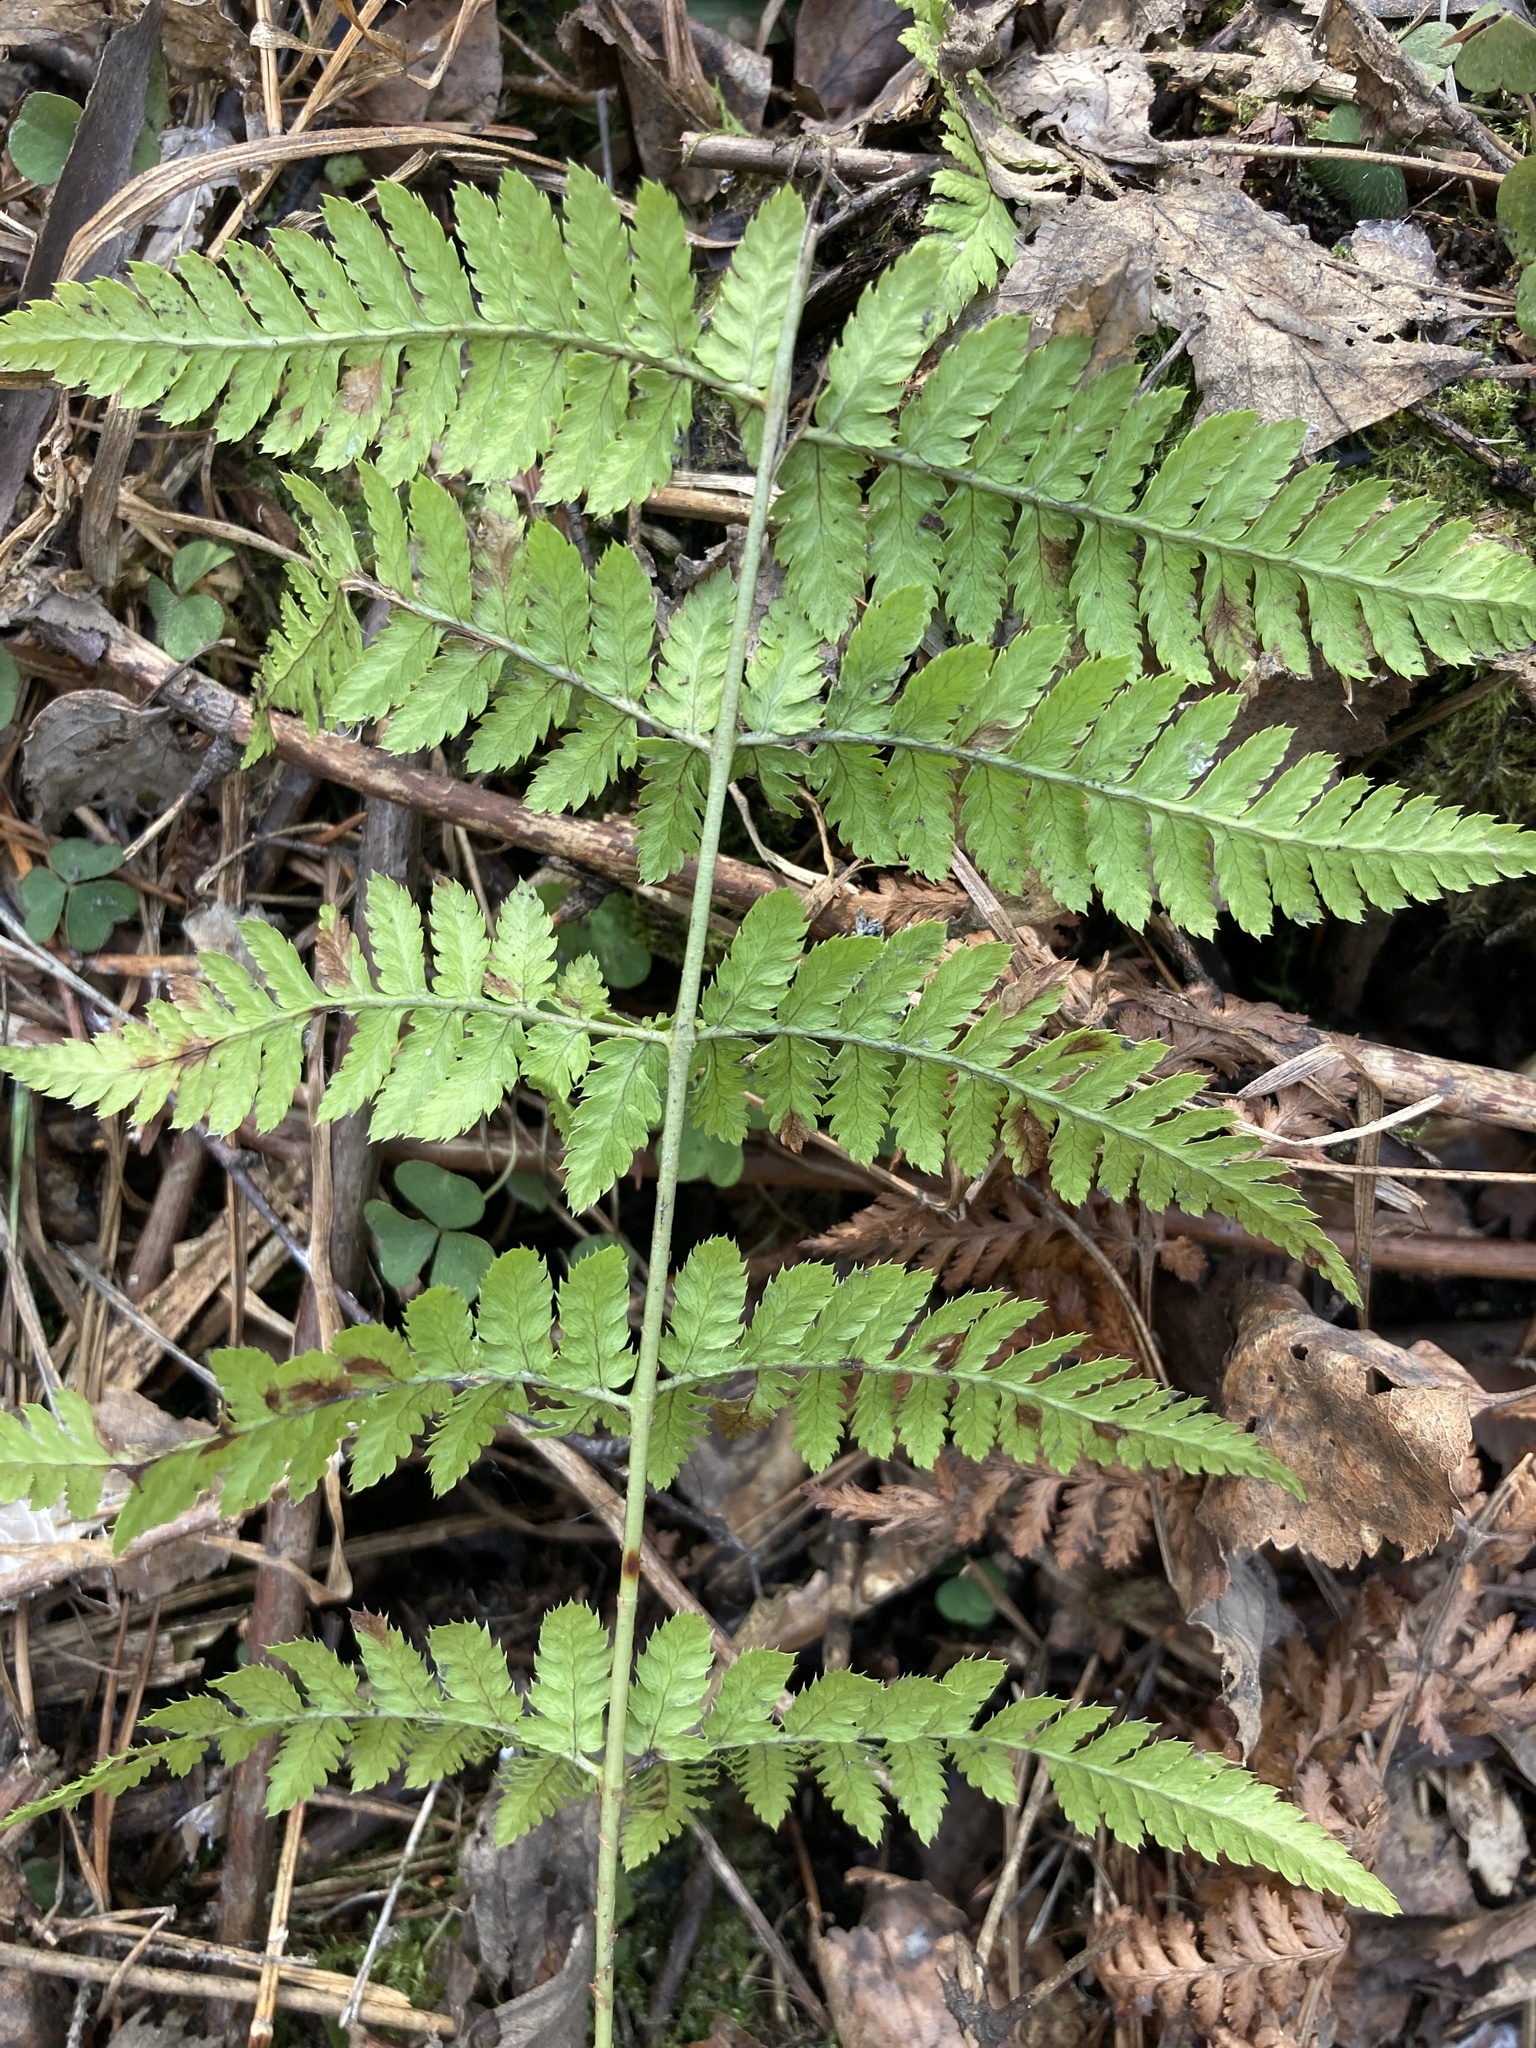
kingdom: Plantae
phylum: Tracheophyta
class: Polypodiopsida
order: Polypodiales
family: Dryopteridaceae
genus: Dryopteris
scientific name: Dryopteris carthusiana
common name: Narrow buckler-fern
